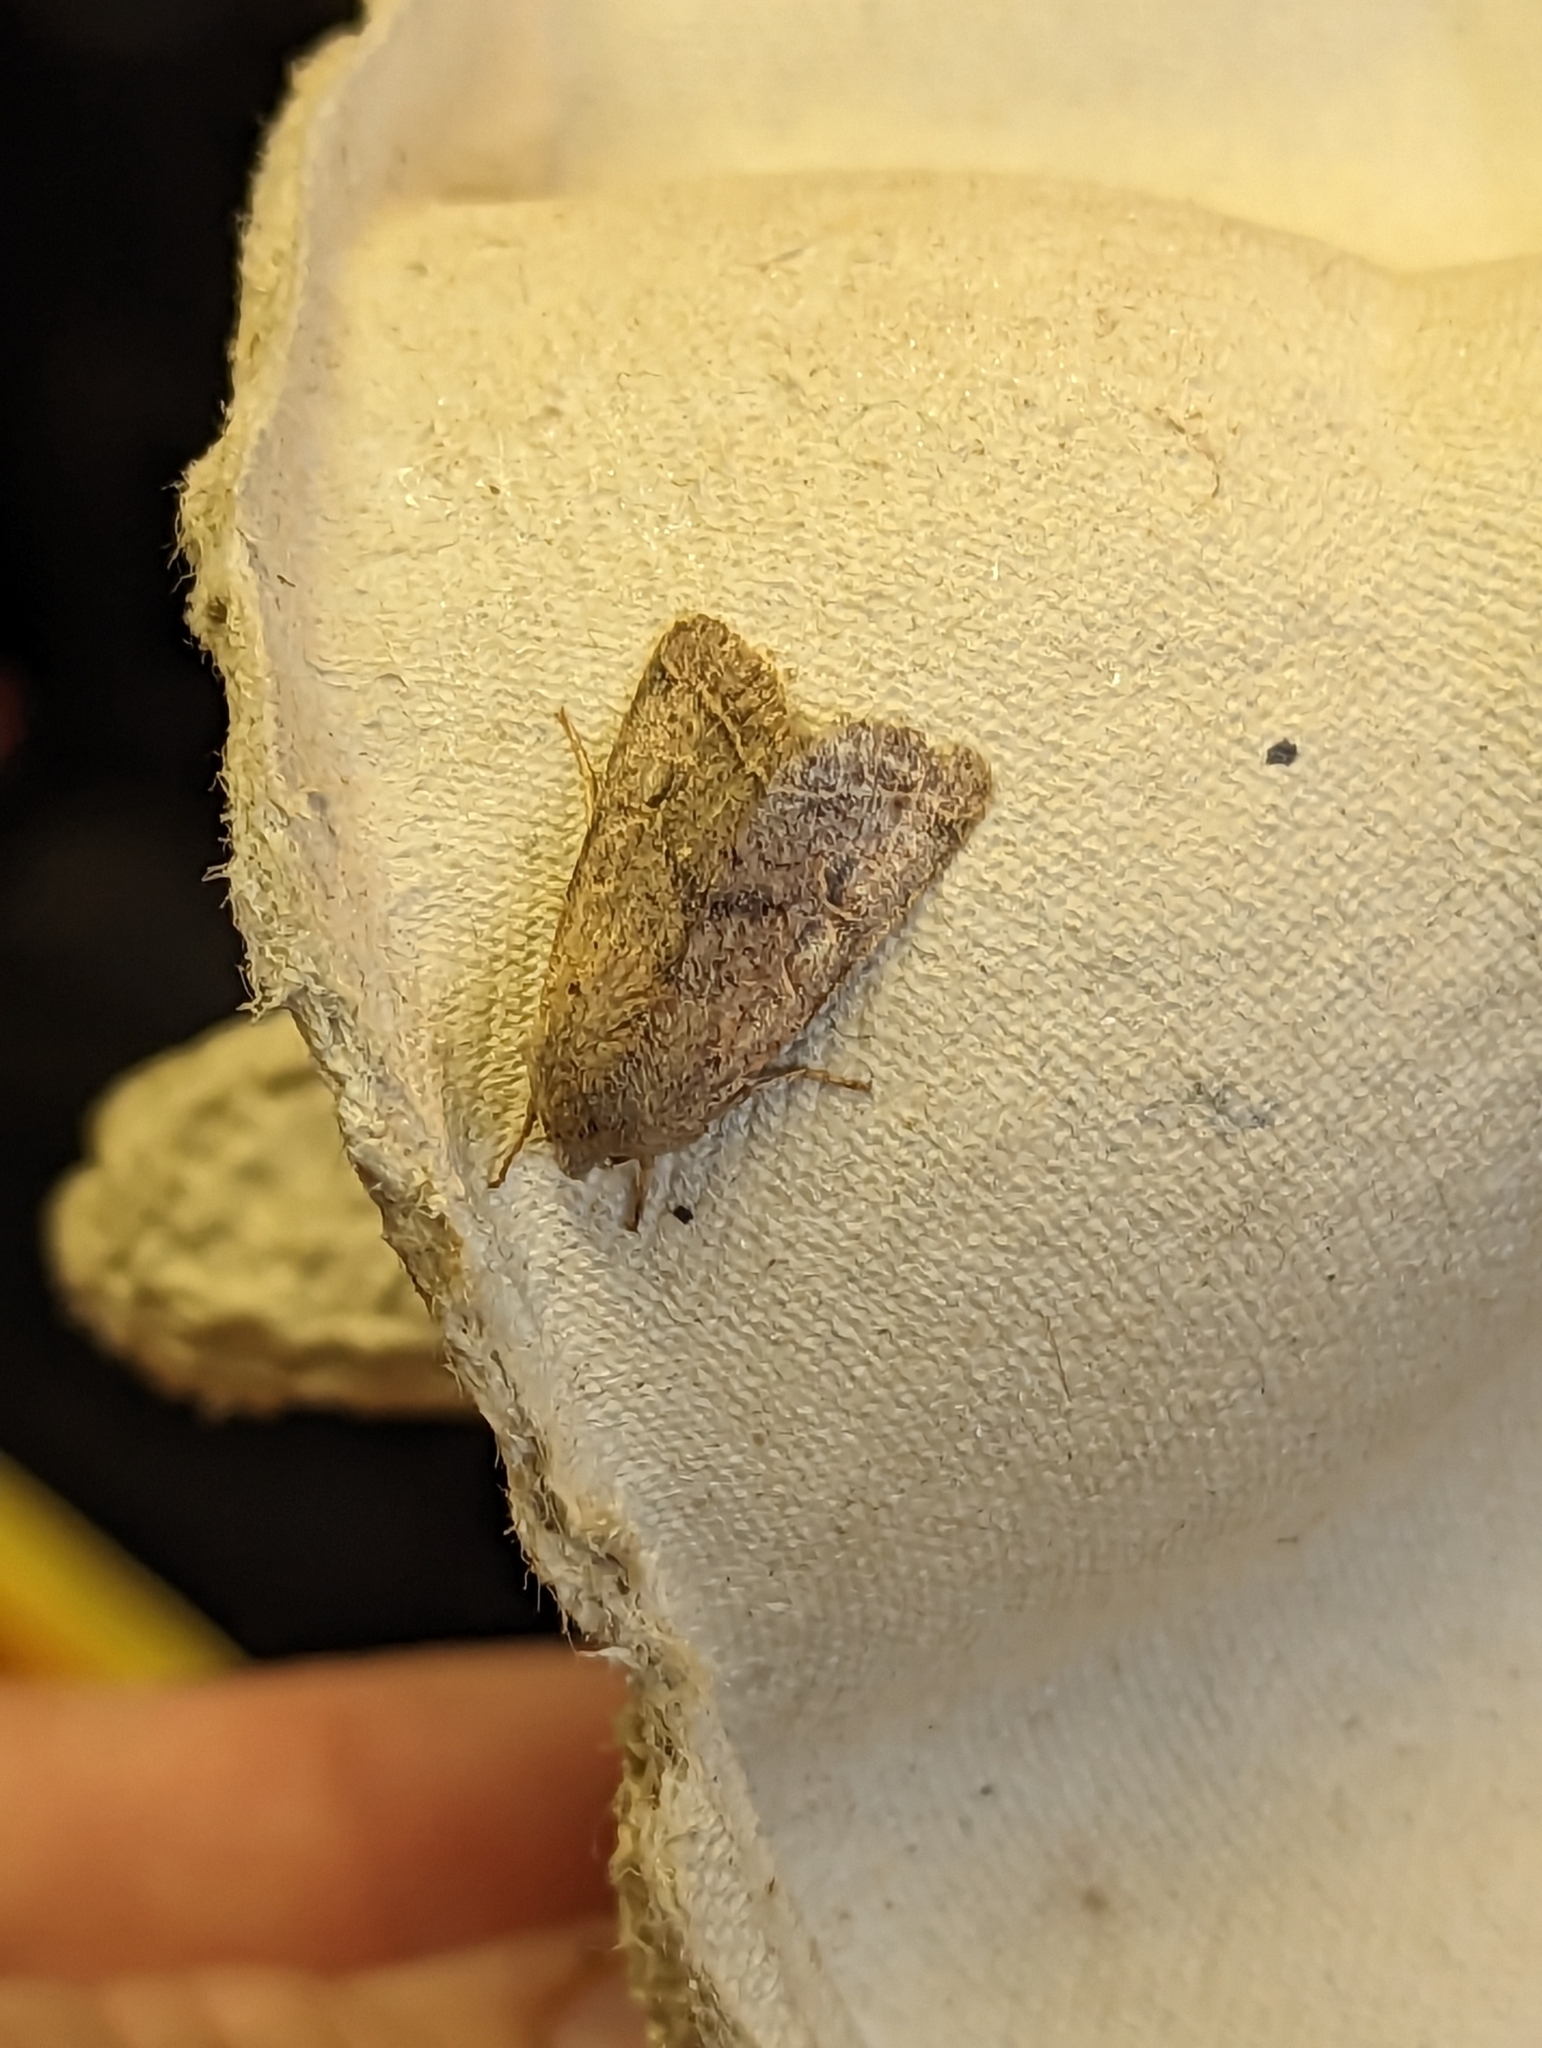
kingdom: Animalia
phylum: Arthropoda
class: Insecta
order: Lepidoptera
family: Noctuidae
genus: Orthosia
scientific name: Orthosia cerasi
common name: Common quaker
